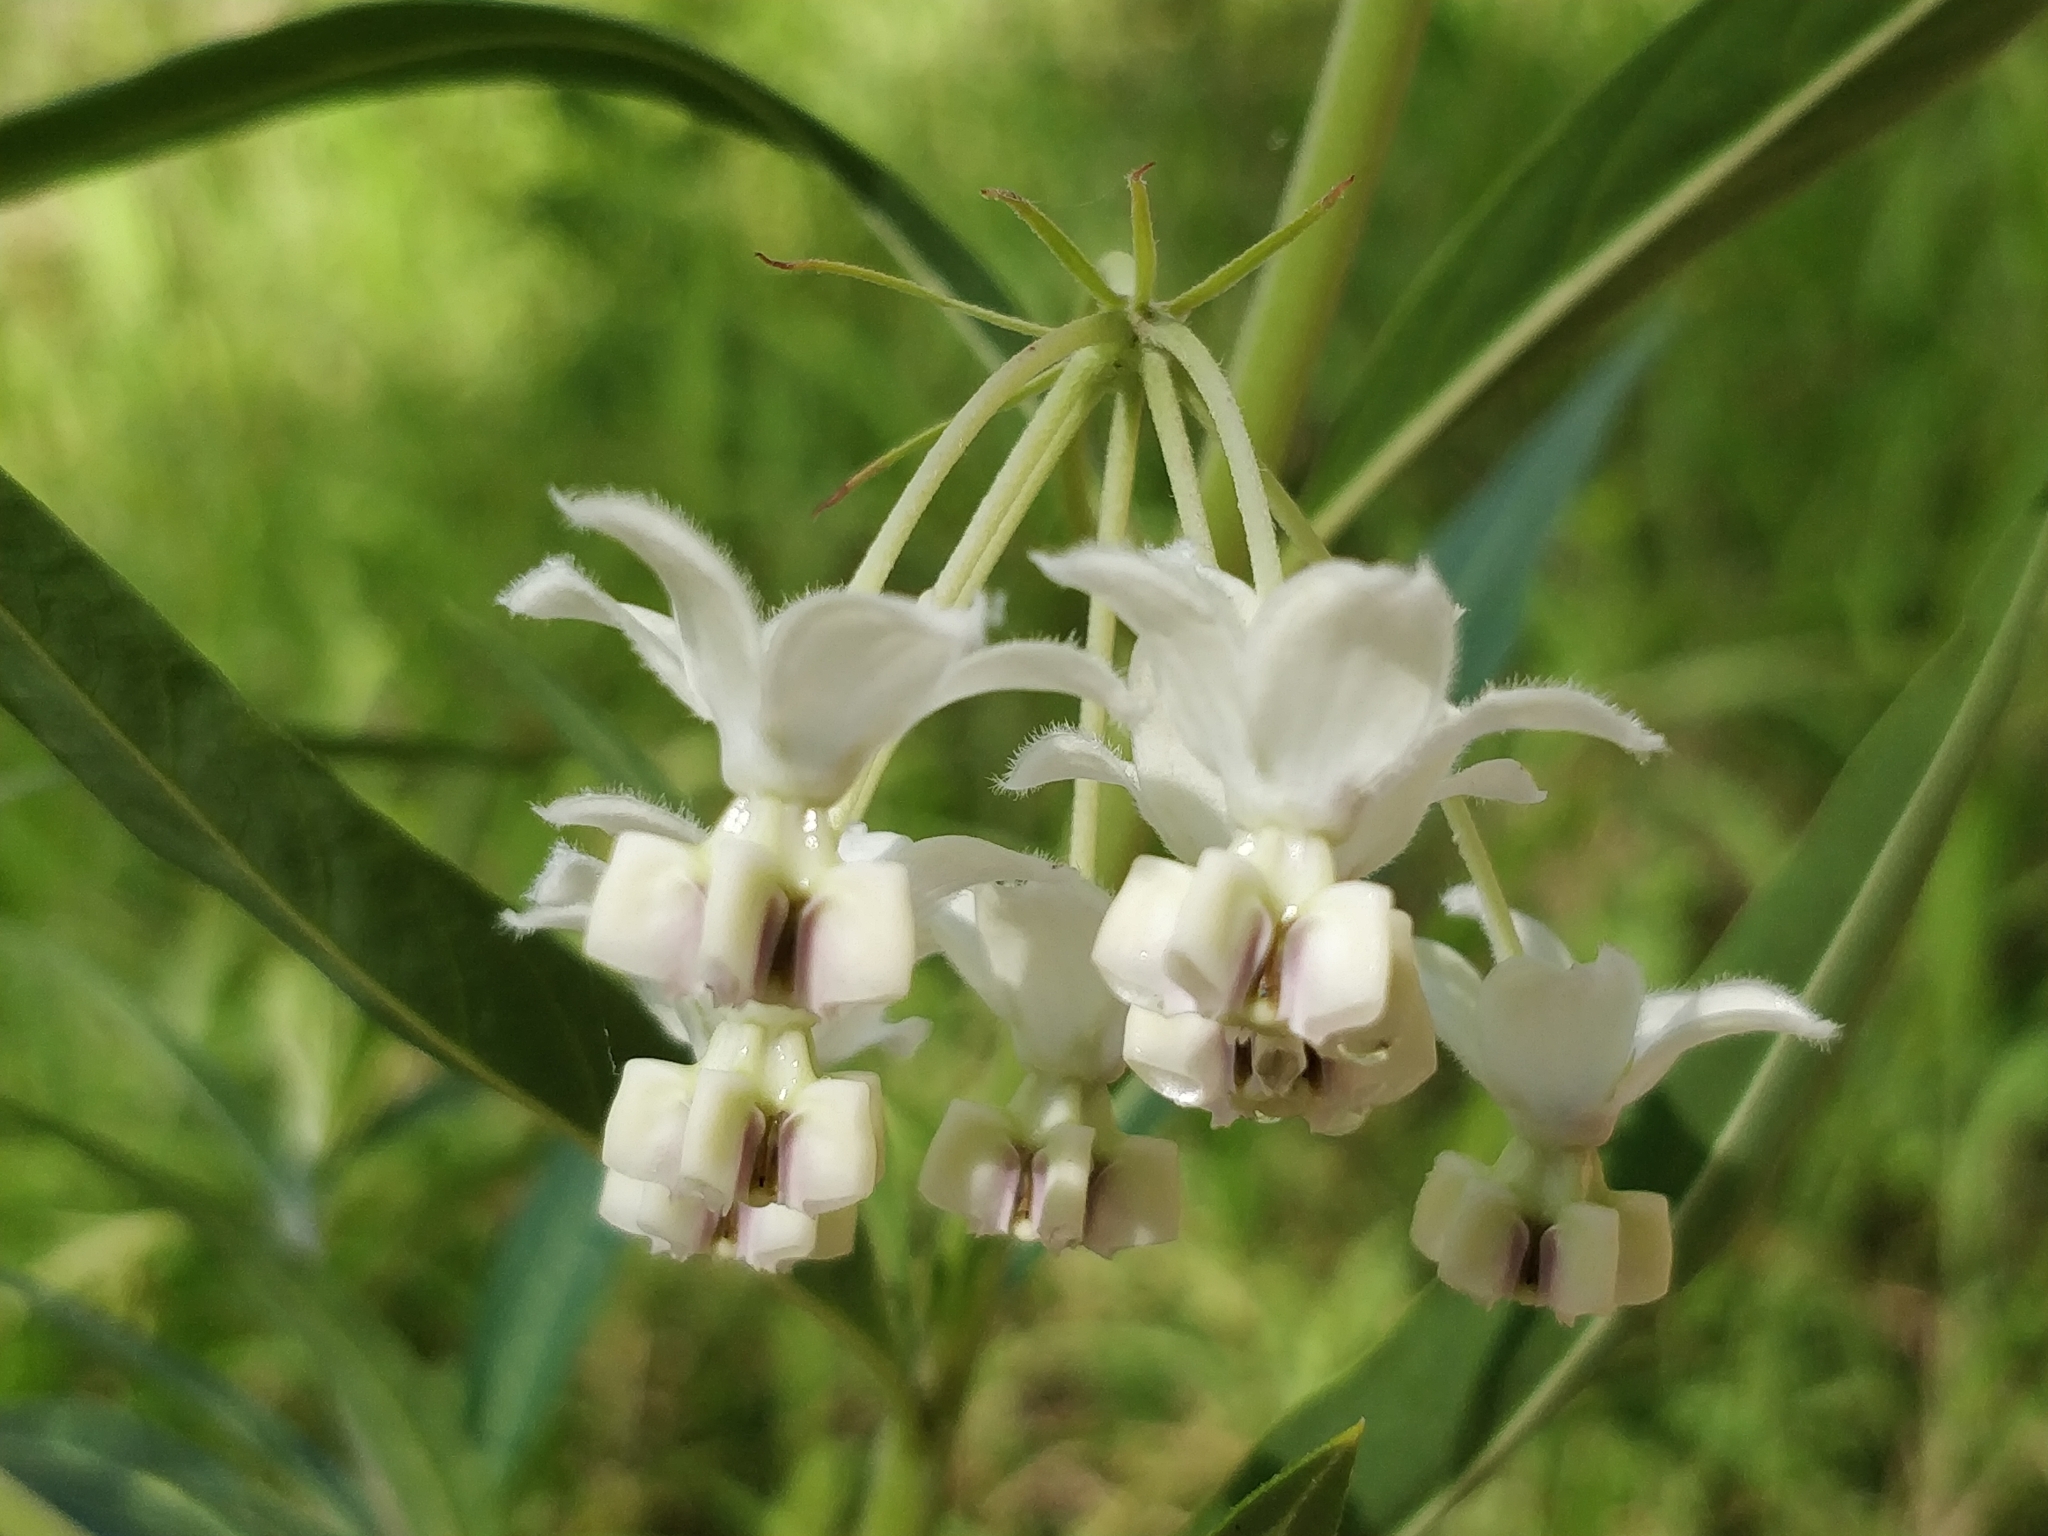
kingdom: Plantae
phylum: Tracheophyta
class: Magnoliopsida
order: Gentianales
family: Apocynaceae
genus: Gomphocarpus
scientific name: Gomphocarpus physocarpus
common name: Balloon cotton bush
